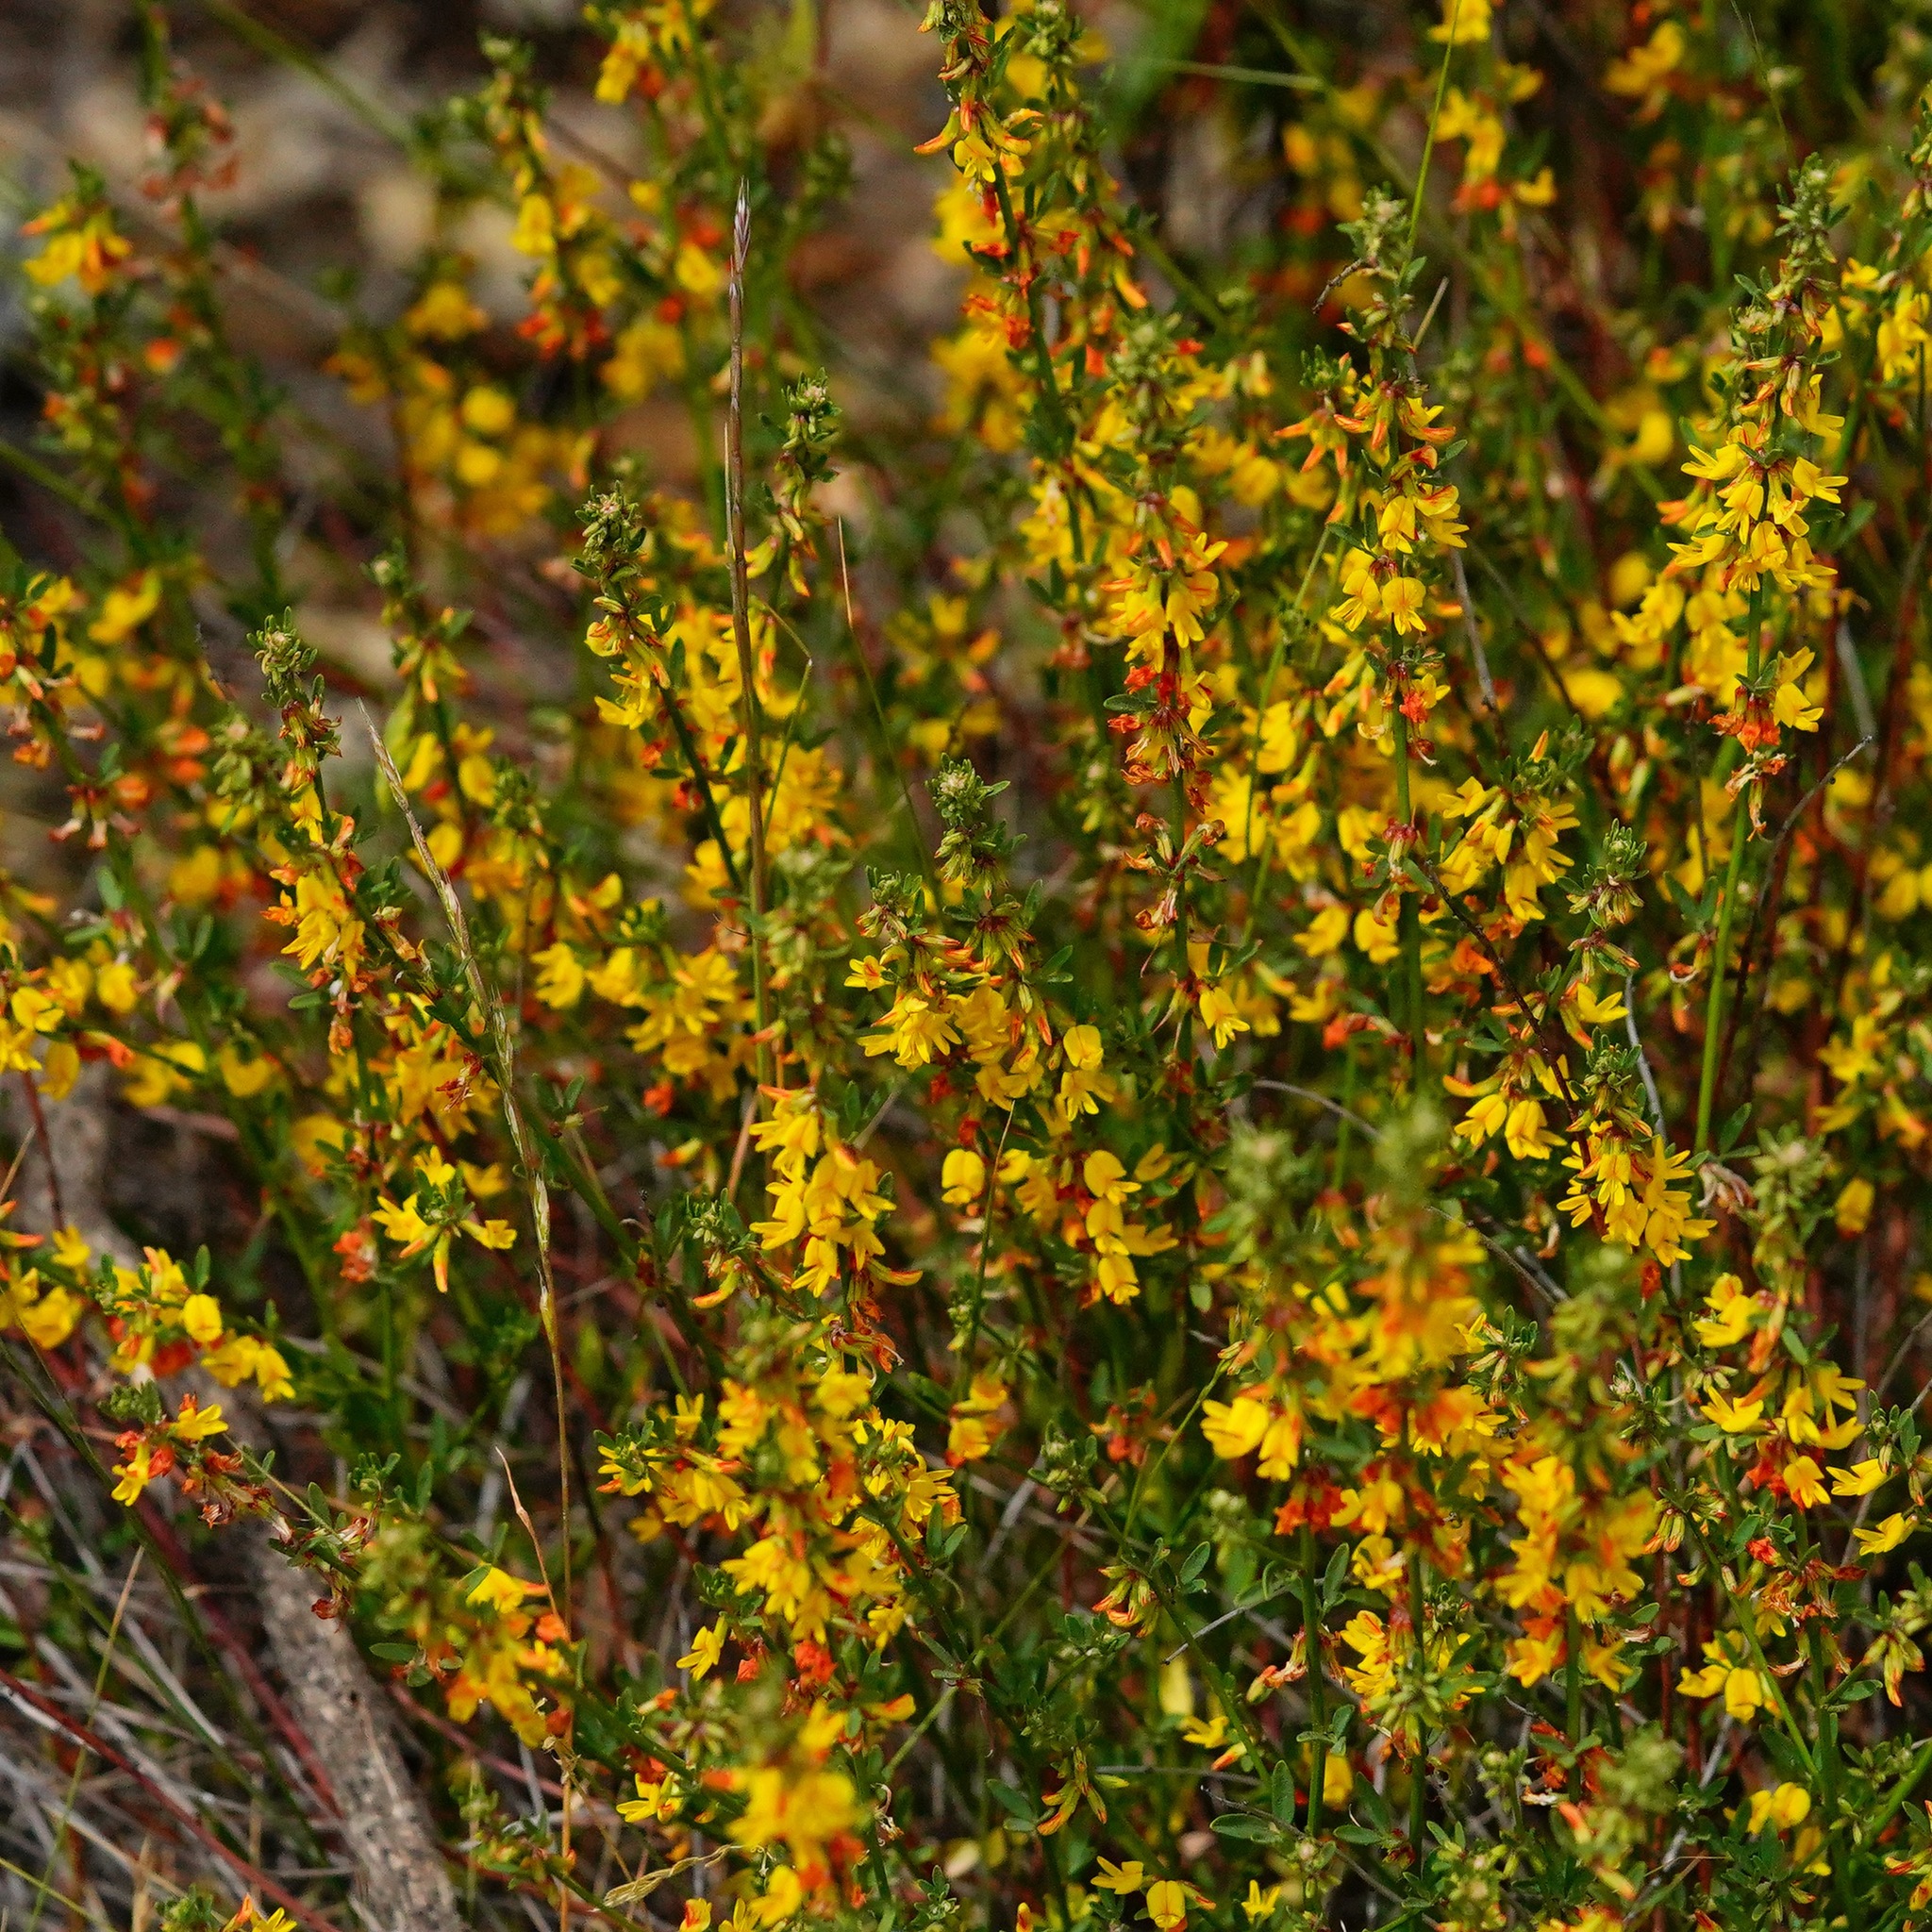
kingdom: Plantae
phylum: Tracheophyta
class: Magnoliopsida
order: Fabales
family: Fabaceae
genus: Acmispon
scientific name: Acmispon glaber
